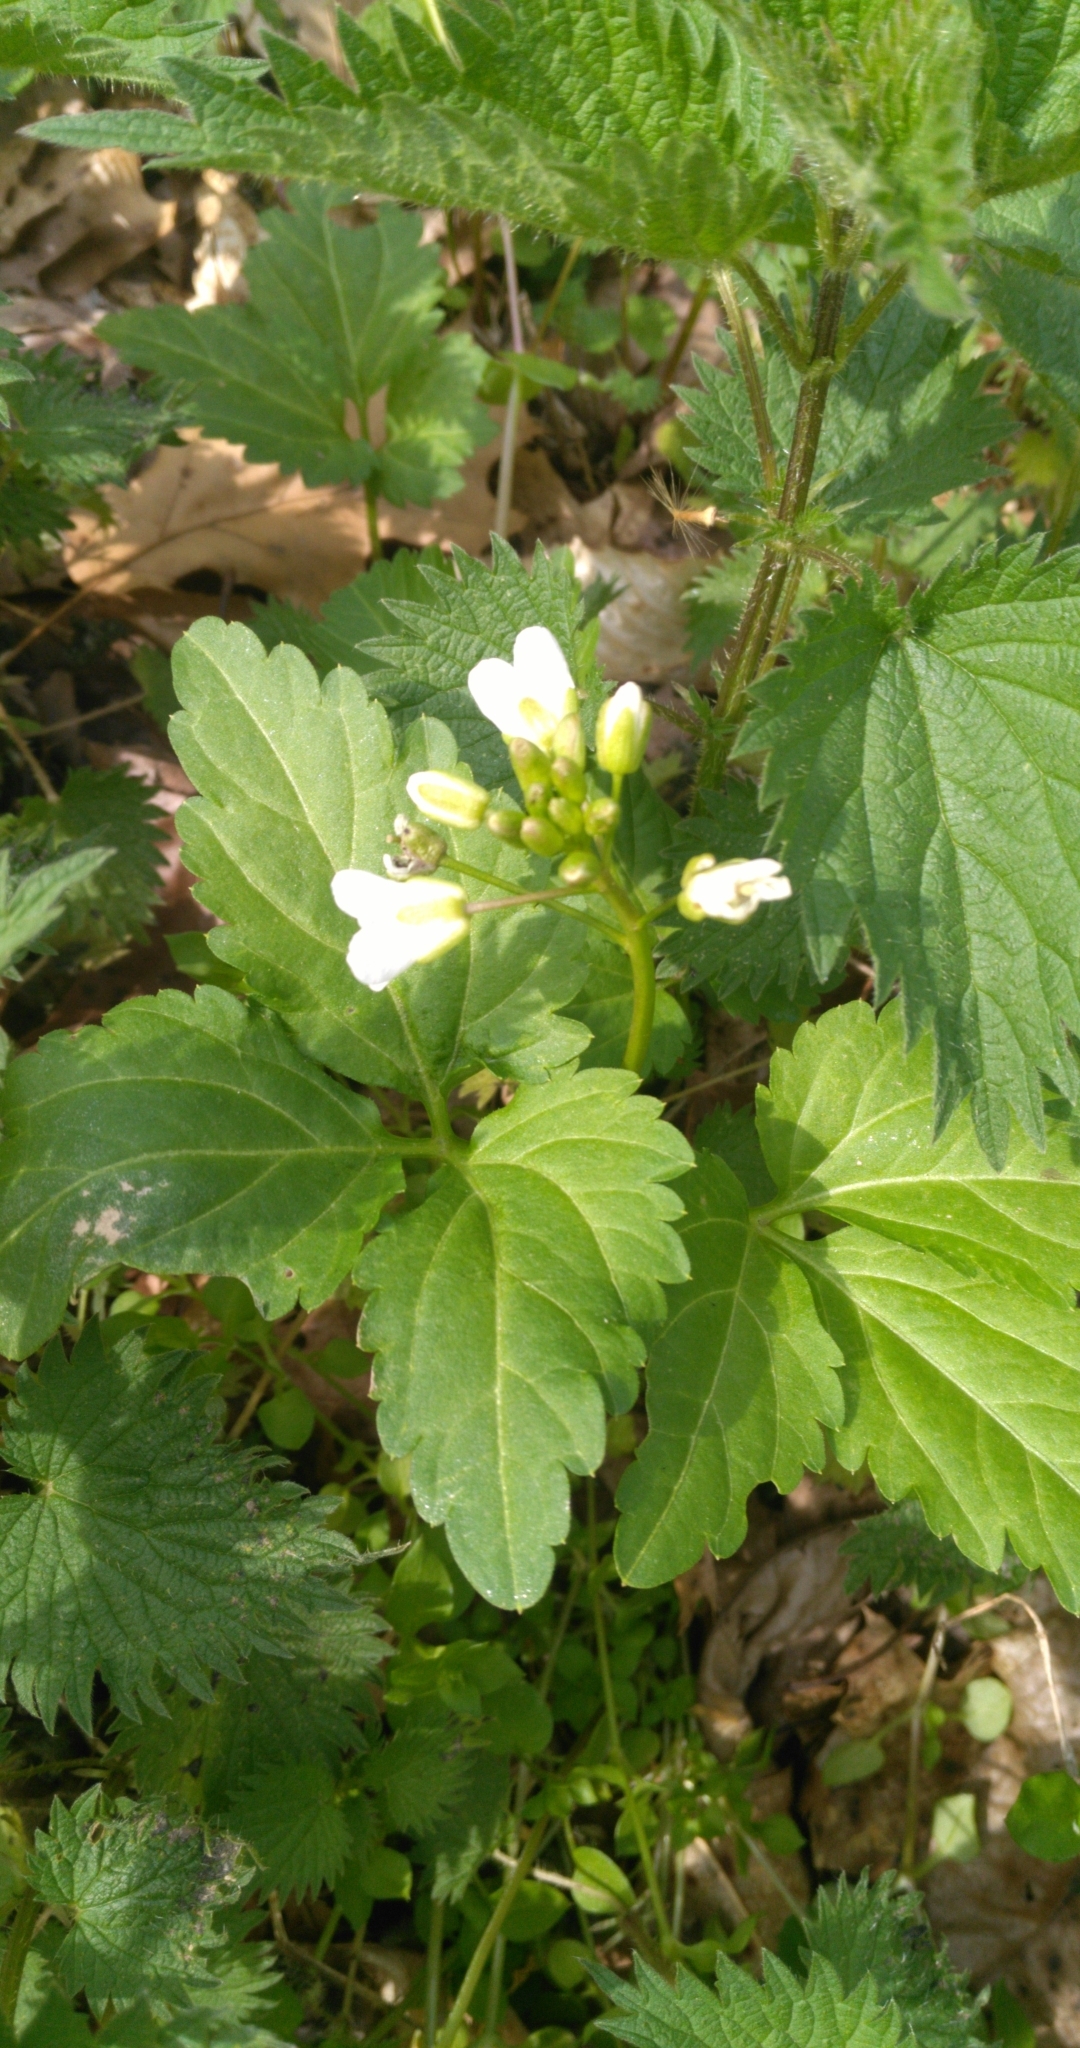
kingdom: Plantae
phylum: Tracheophyta
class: Magnoliopsida
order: Brassicales
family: Brassicaceae
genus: Cardamine
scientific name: Cardamine diphylla
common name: Broad-leaved toothwort
